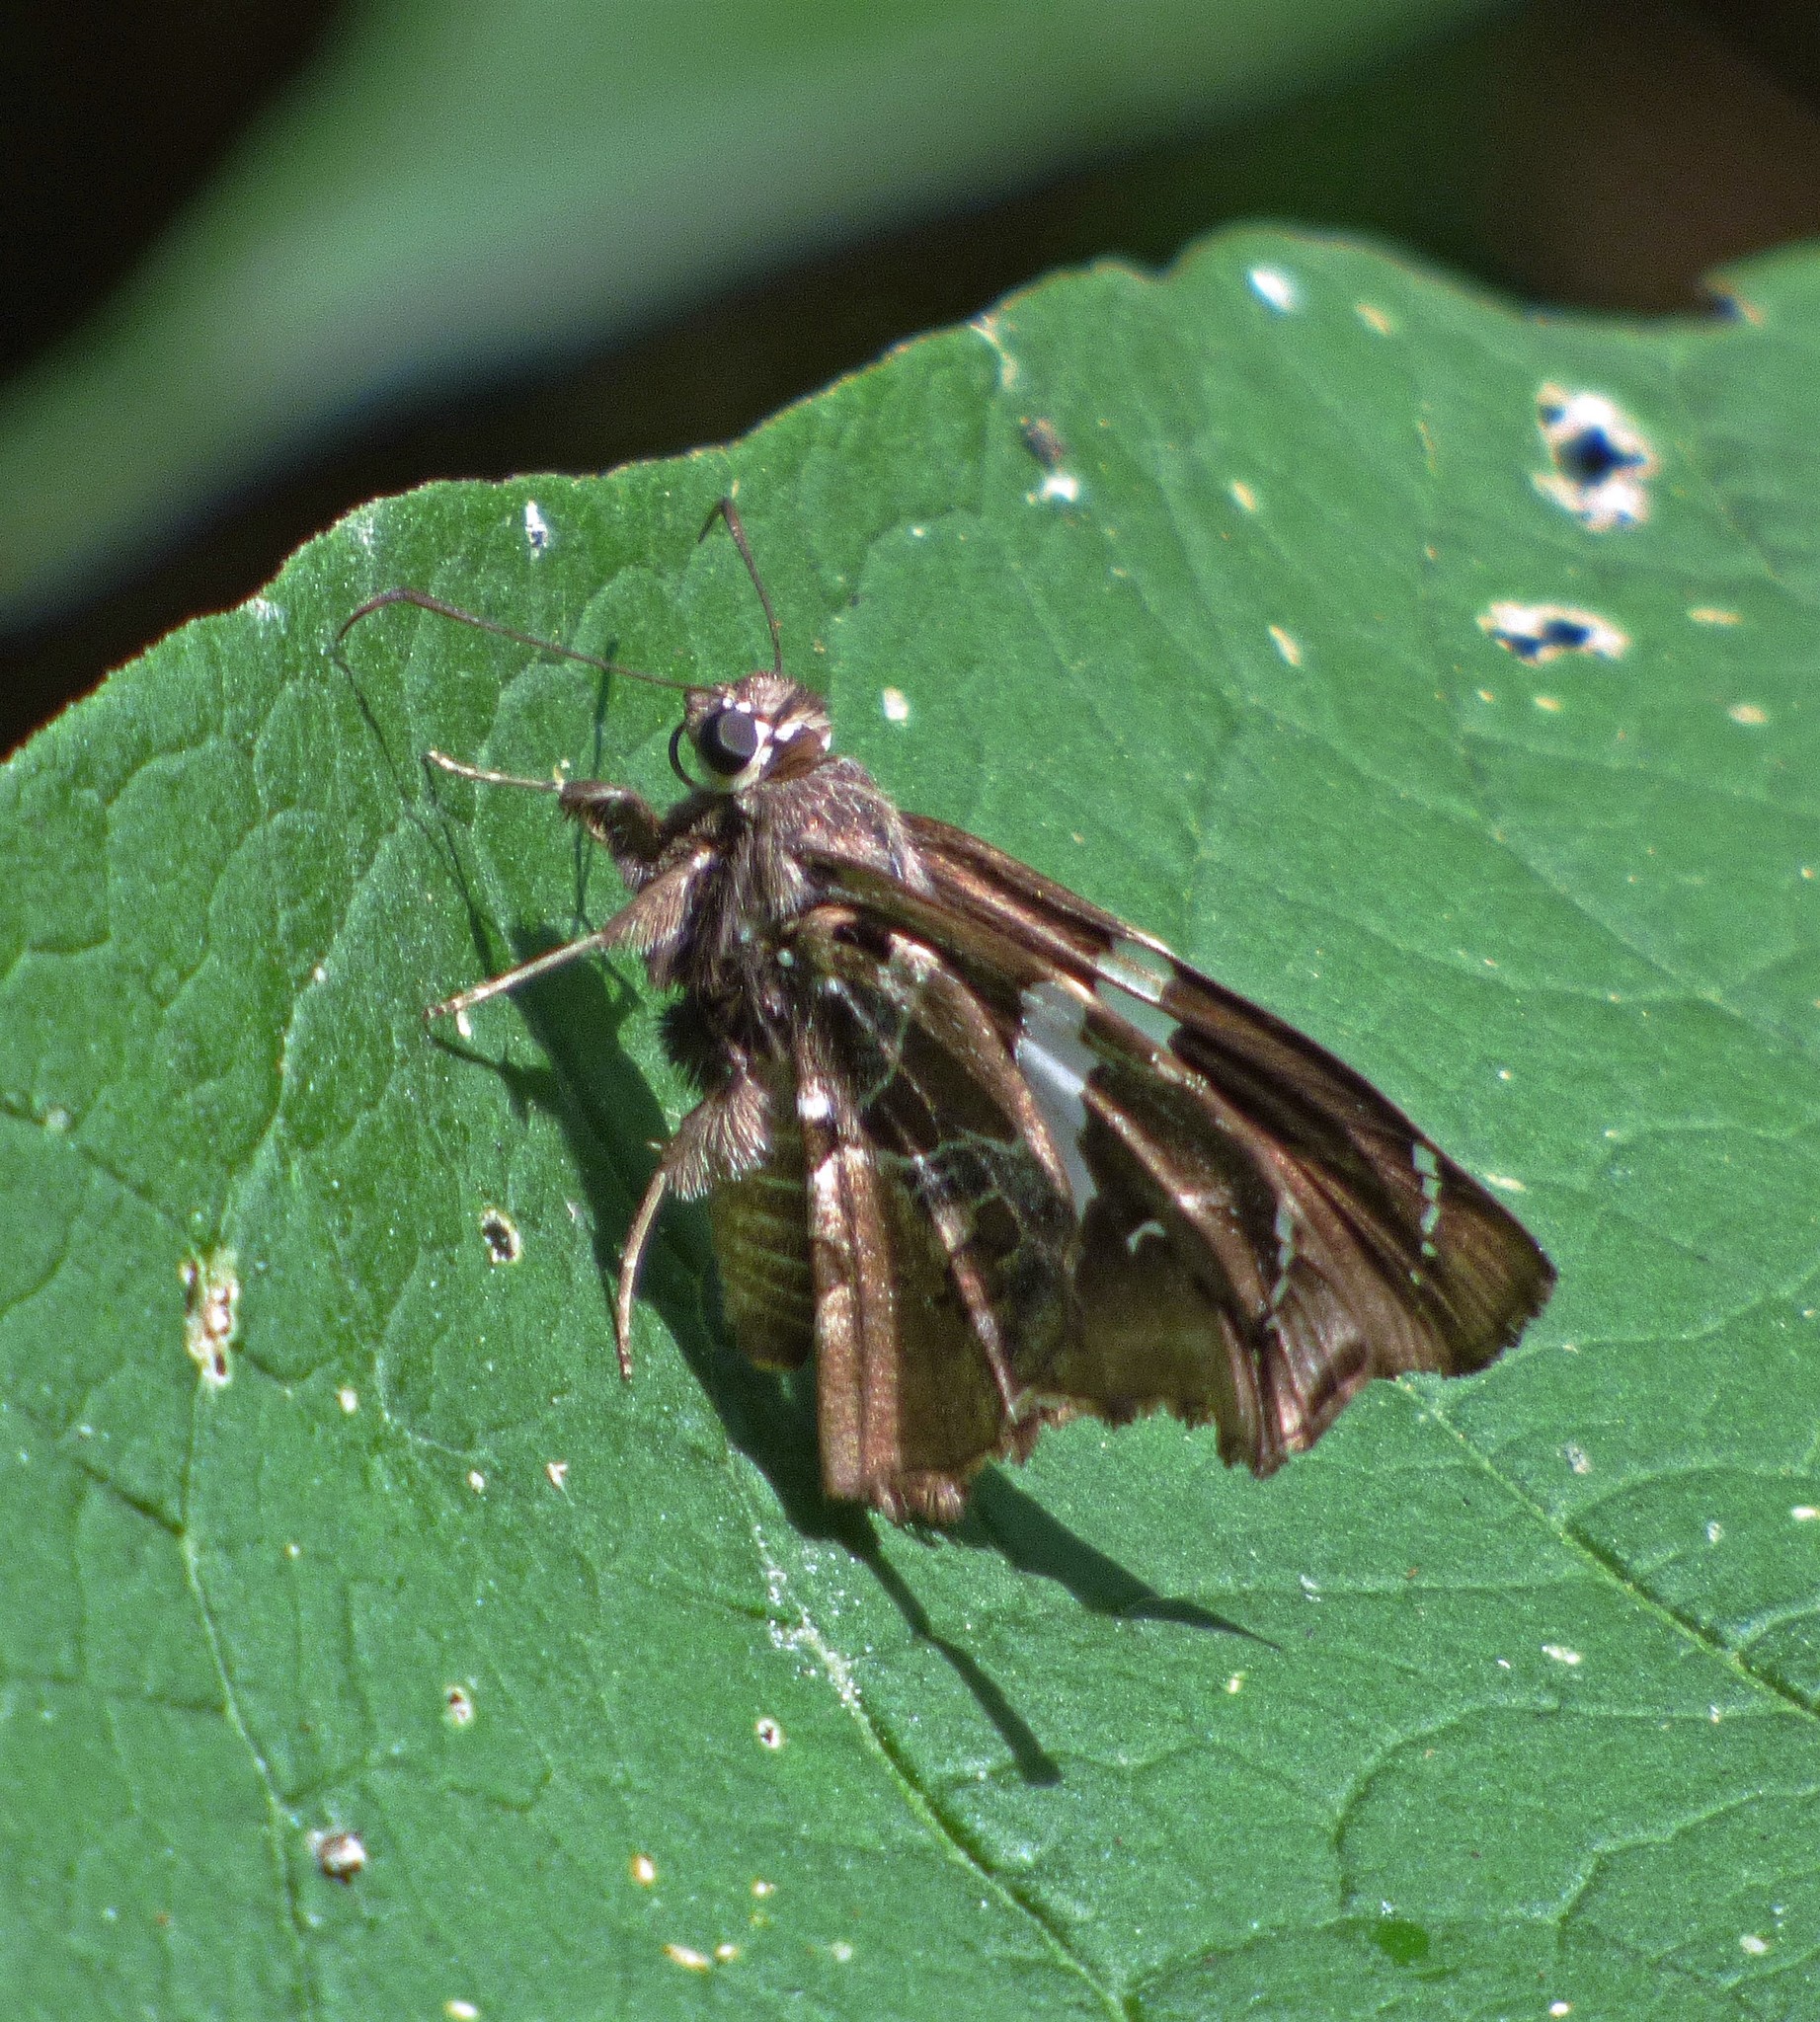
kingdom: Animalia
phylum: Arthropoda
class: Insecta
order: Lepidoptera
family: Hesperiidae
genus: Spathilepia
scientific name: Spathilepia clonius
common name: Falcate skipper
